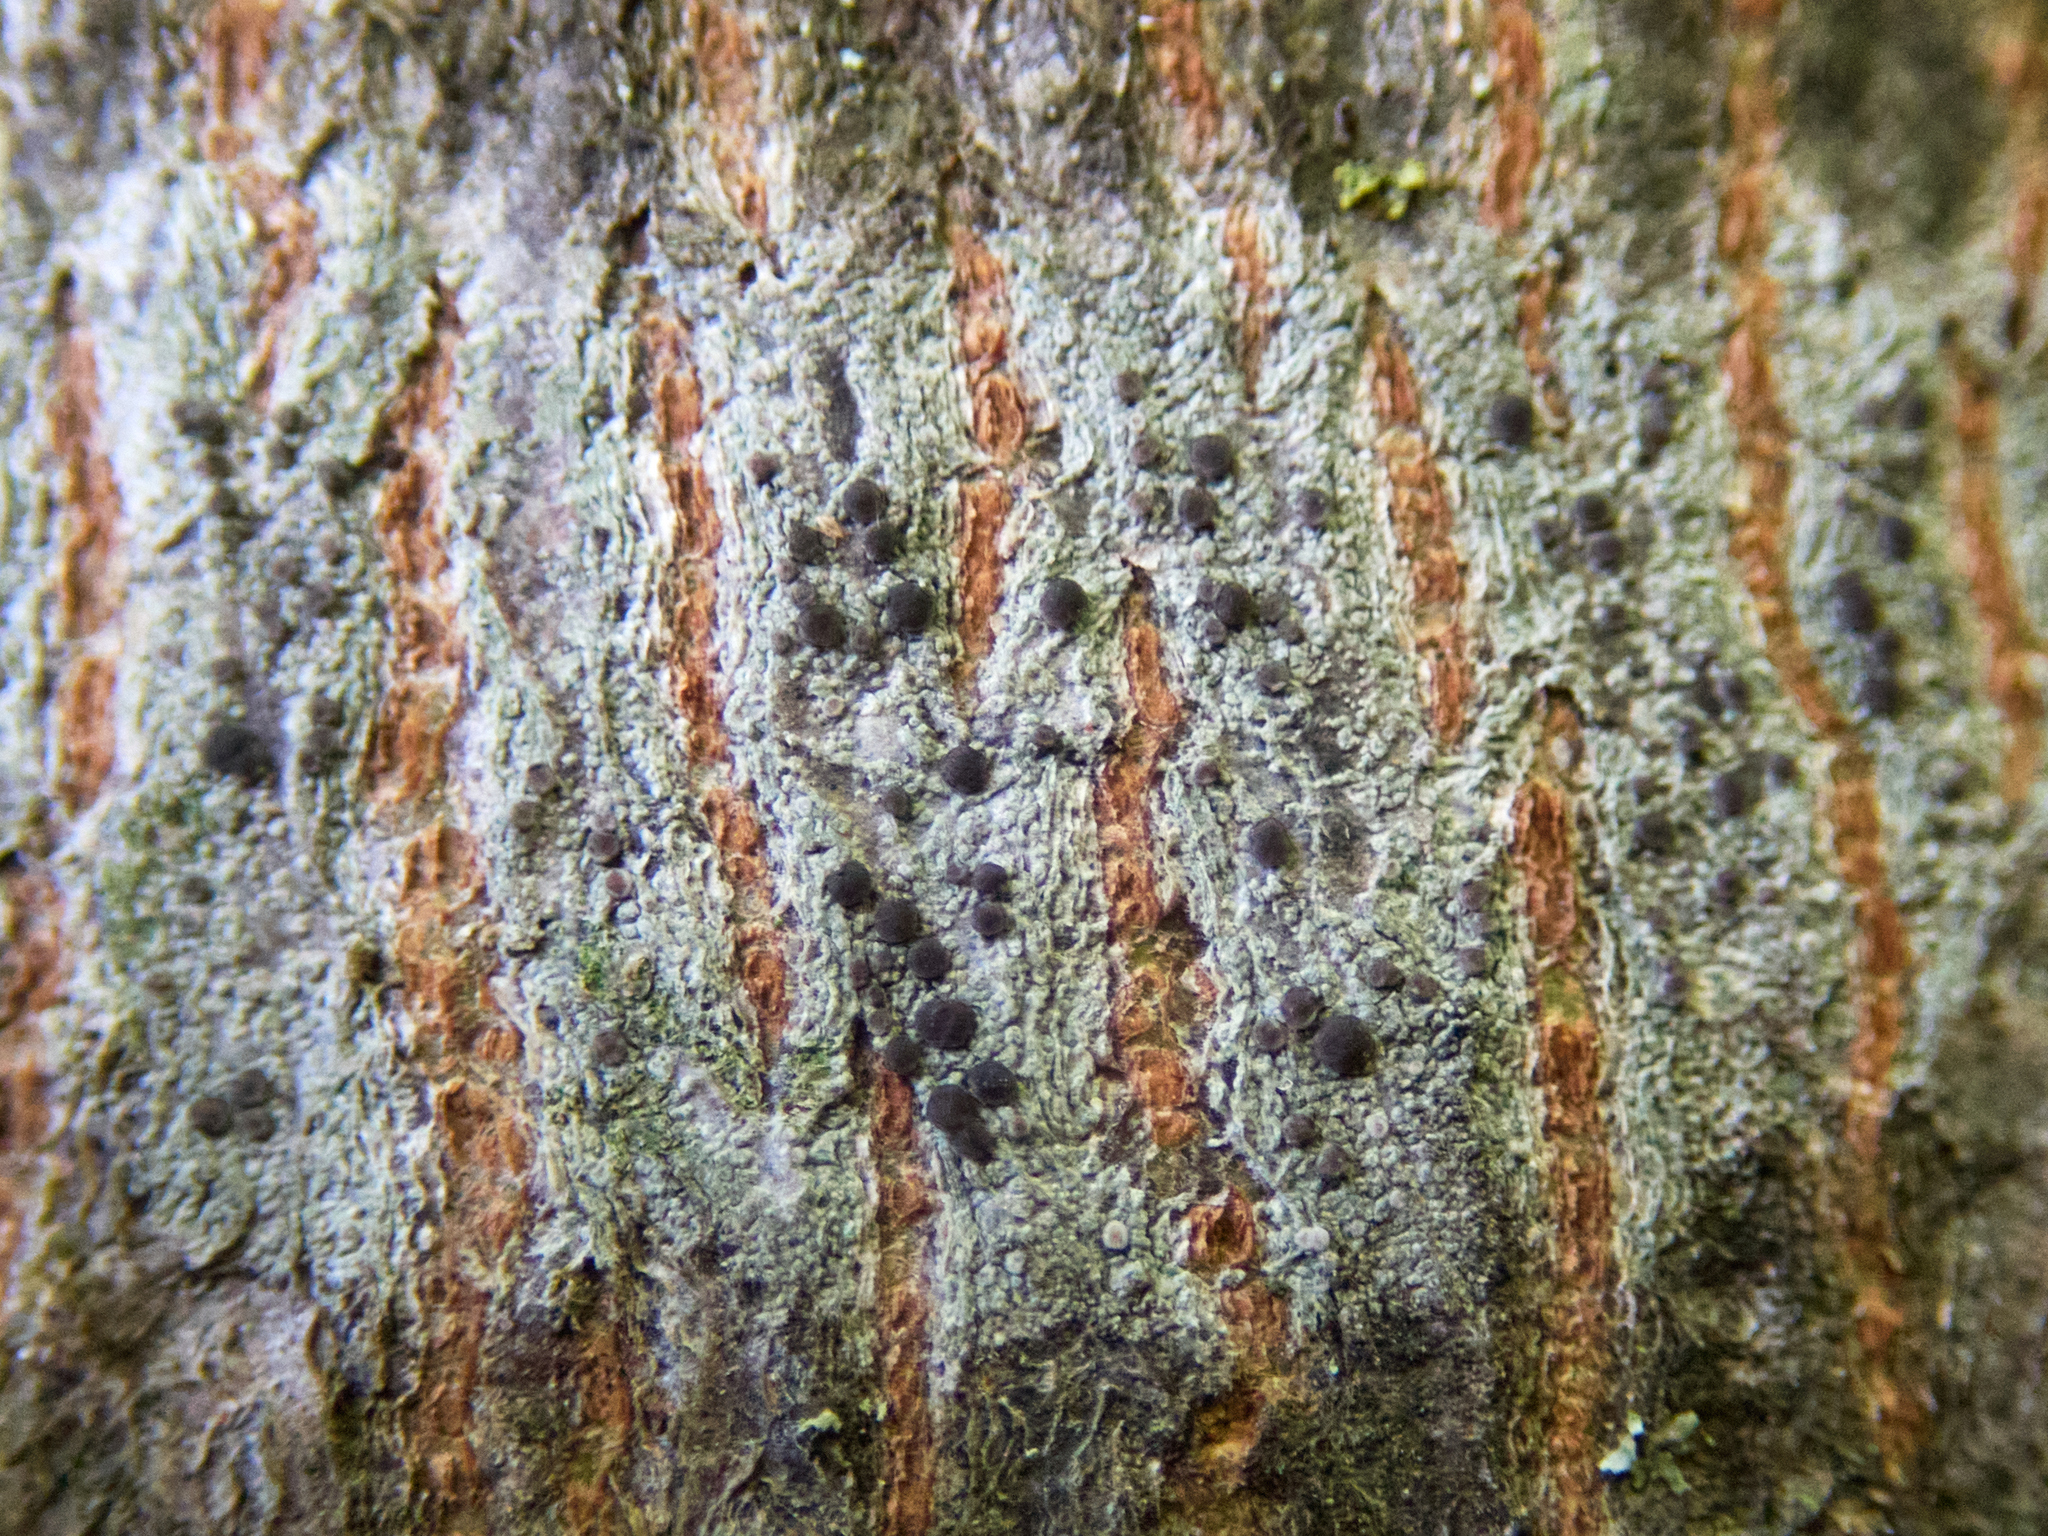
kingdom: Fungi
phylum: Ascomycota
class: Lecanoromycetes
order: Lecanorales
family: Ramalinaceae
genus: Lecania
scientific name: Lecania naegelii
